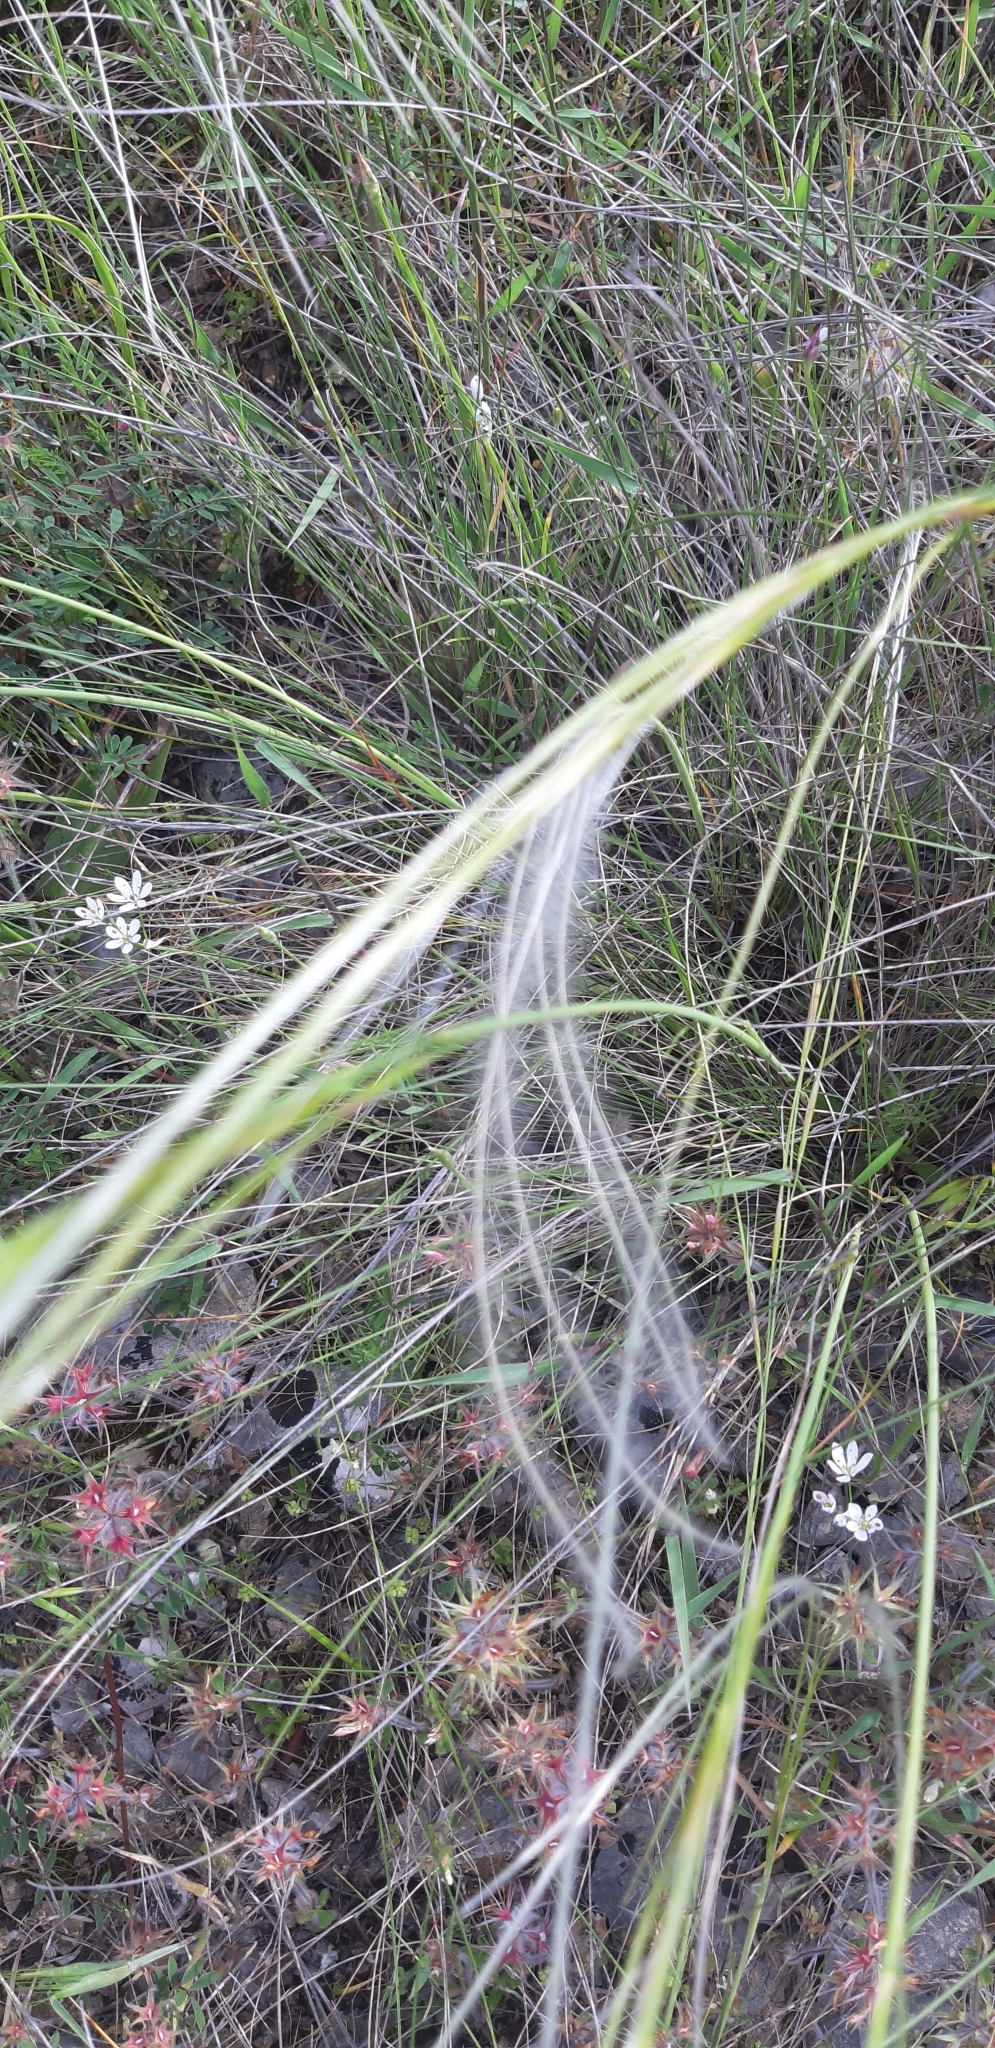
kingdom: Plantae
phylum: Tracheophyta
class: Liliopsida
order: Poales
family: Poaceae
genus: Stipa
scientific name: Stipa austroitalica
